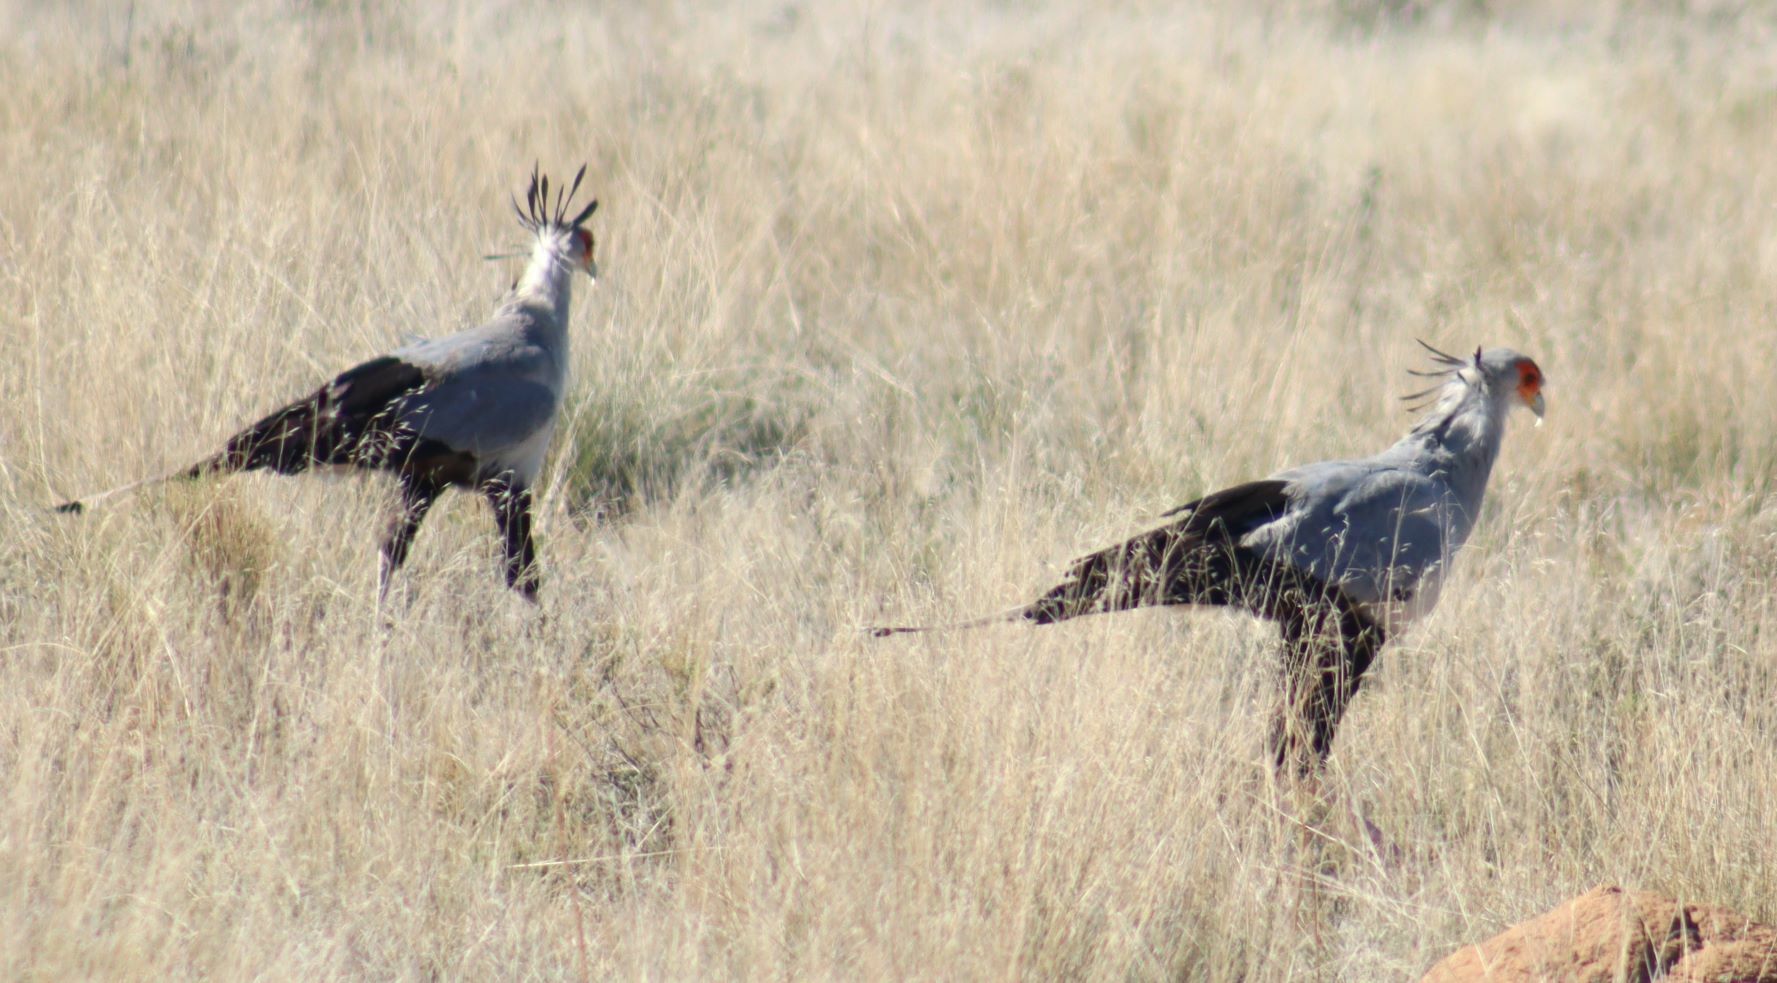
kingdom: Animalia
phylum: Chordata
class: Aves
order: Accipitriformes
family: Sagittariidae
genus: Sagittarius
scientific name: Sagittarius serpentarius
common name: Secretarybird
